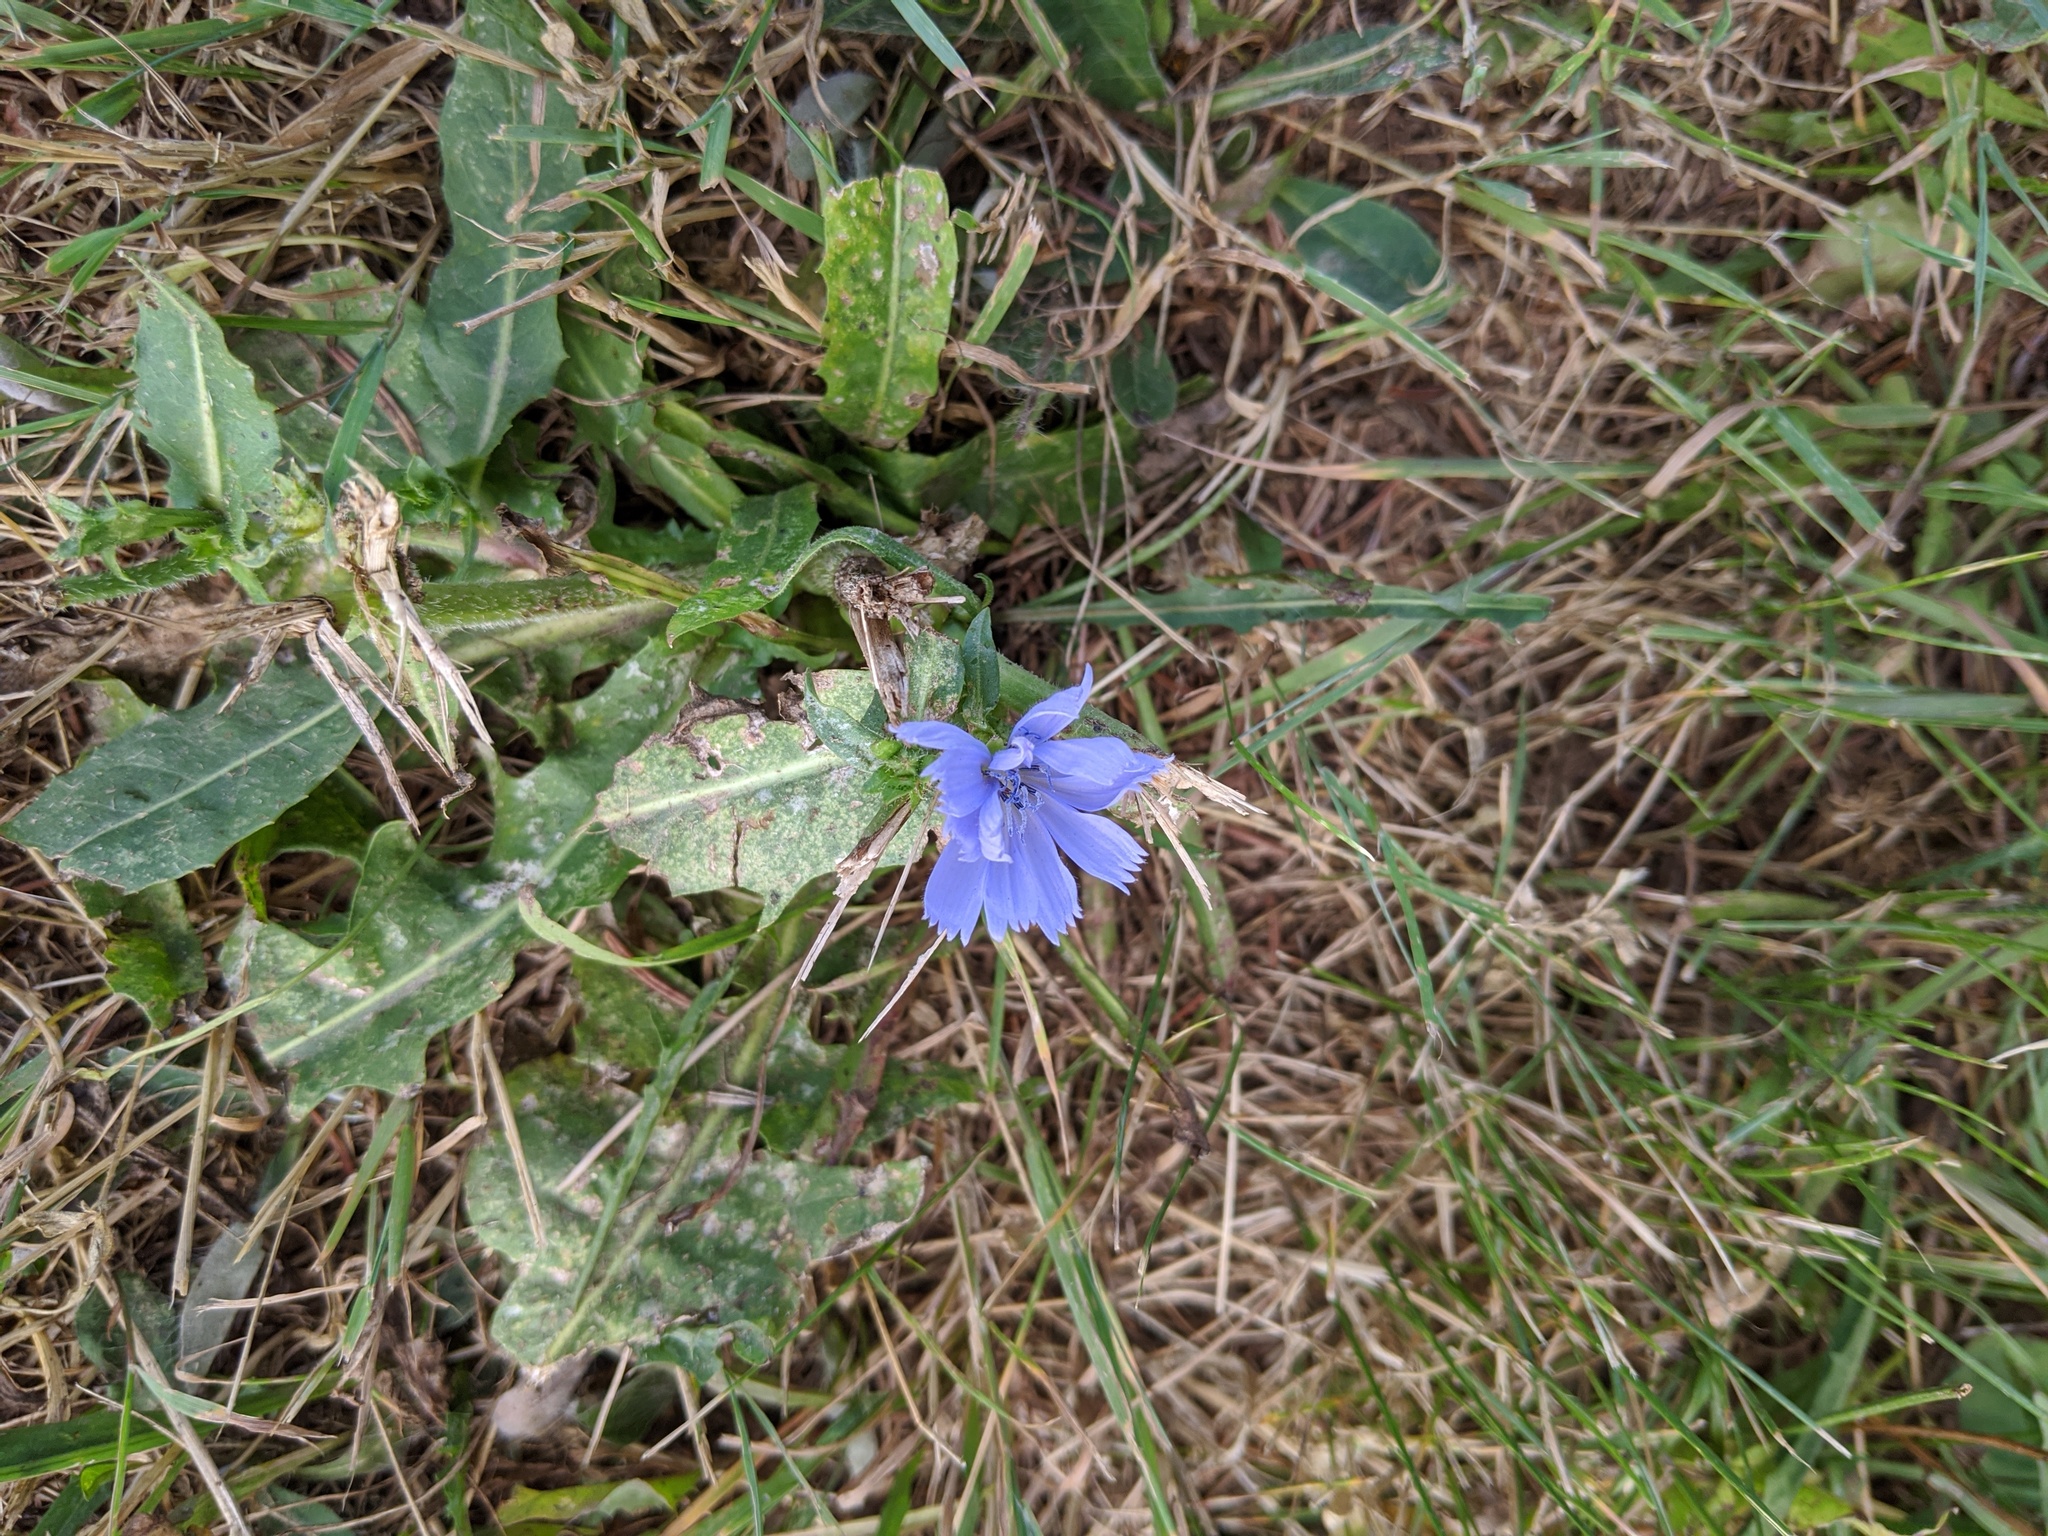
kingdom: Plantae
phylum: Tracheophyta
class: Magnoliopsida
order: Asterales
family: Asteraceae
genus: Cichorium
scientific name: Cichorium intybus
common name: Chicory
